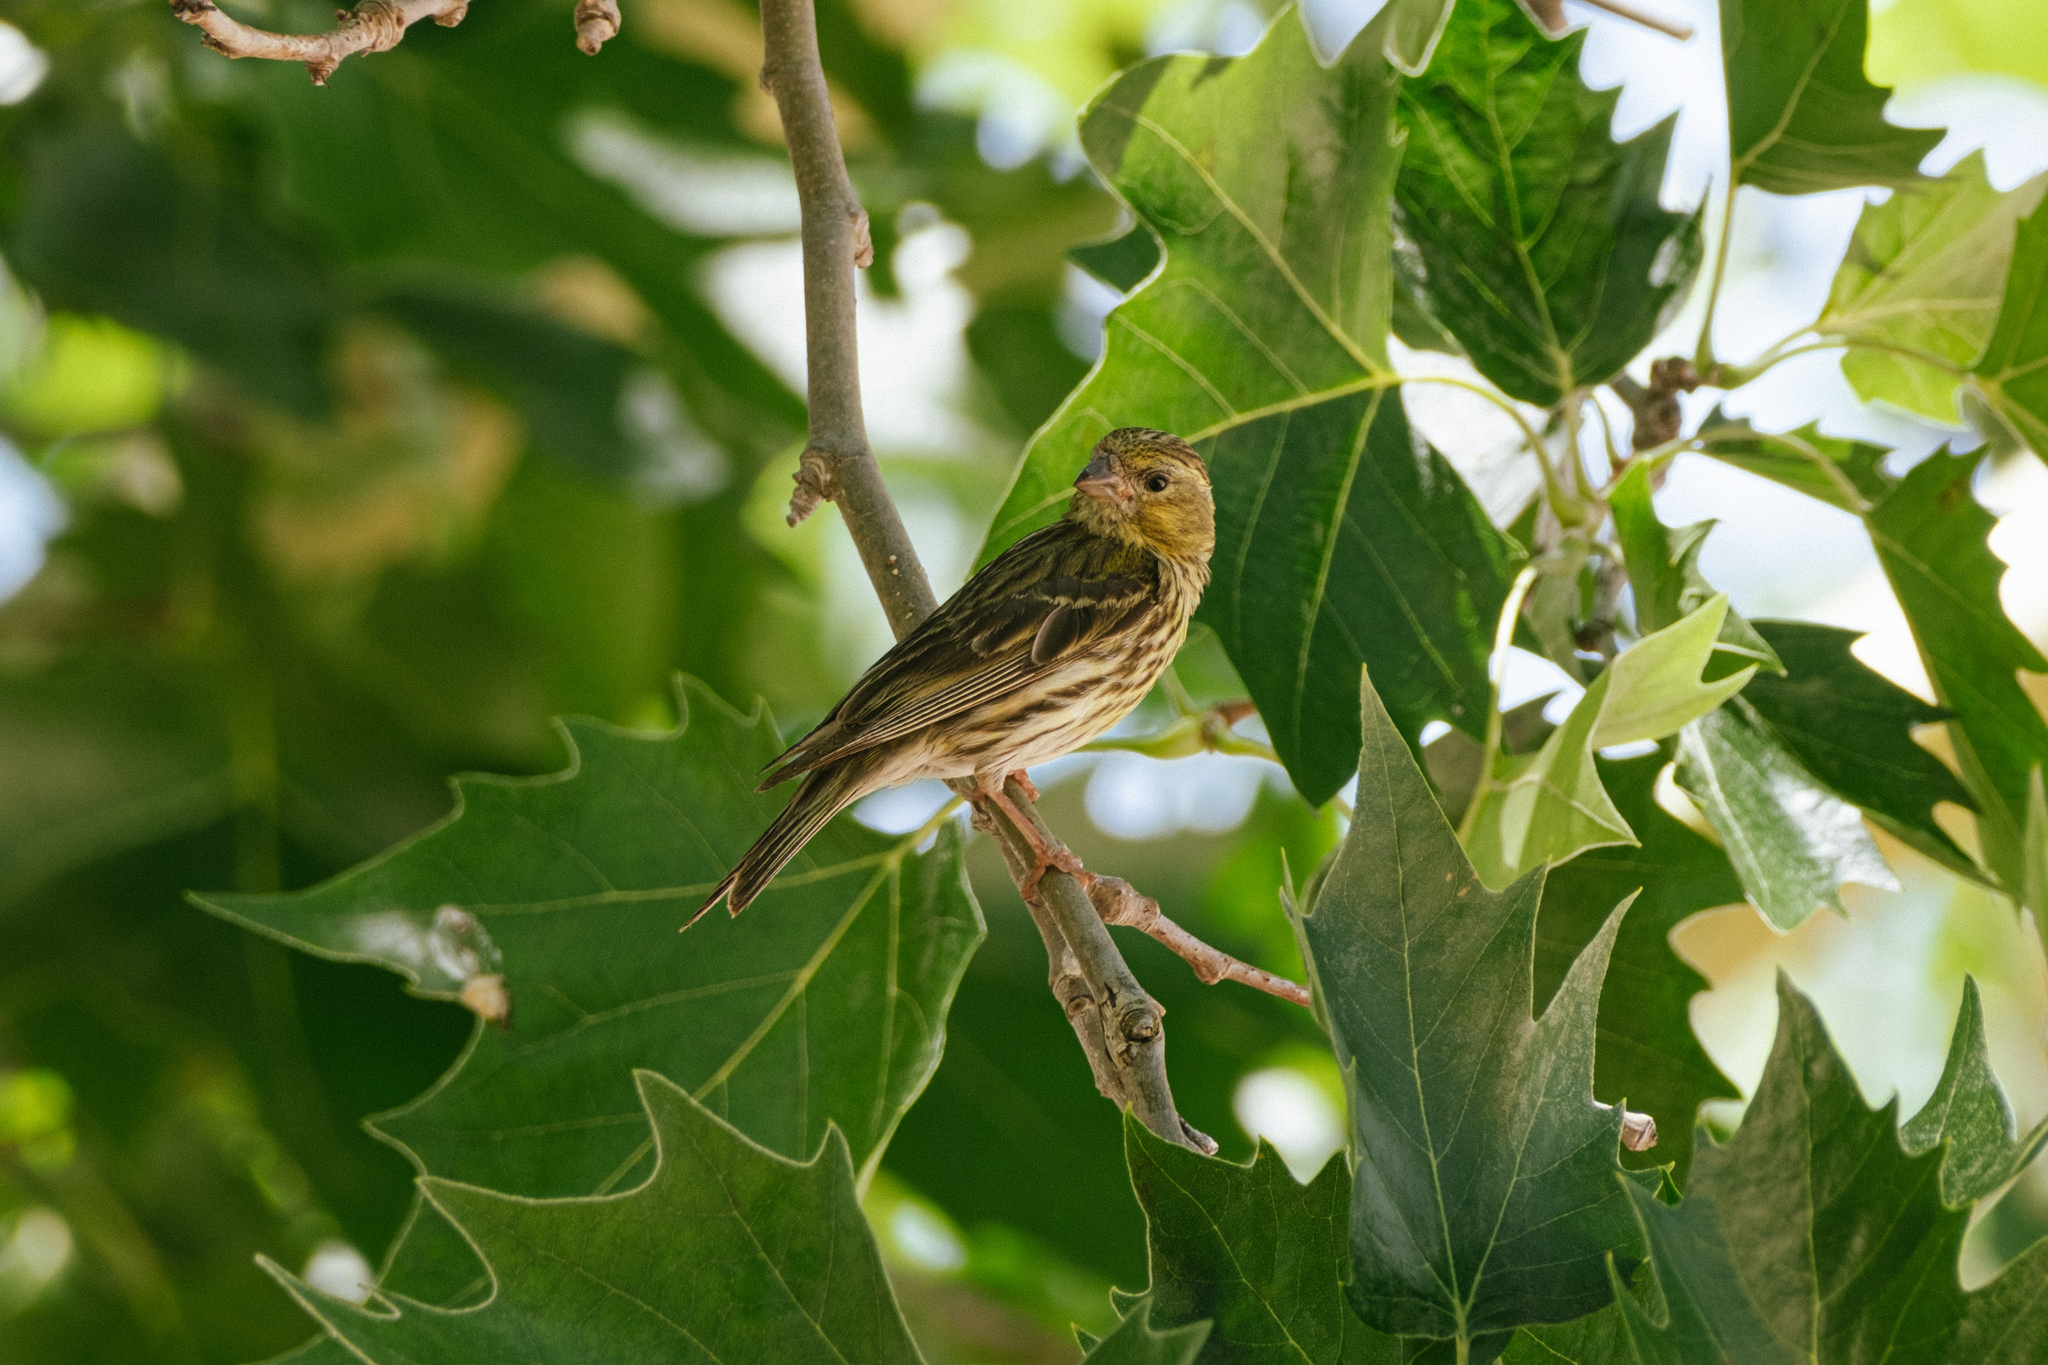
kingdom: Animalia
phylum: Chordata
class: Aves
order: Passeriformes
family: Fringillidae
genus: Serinus
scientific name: Serinus serinus
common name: European serin
